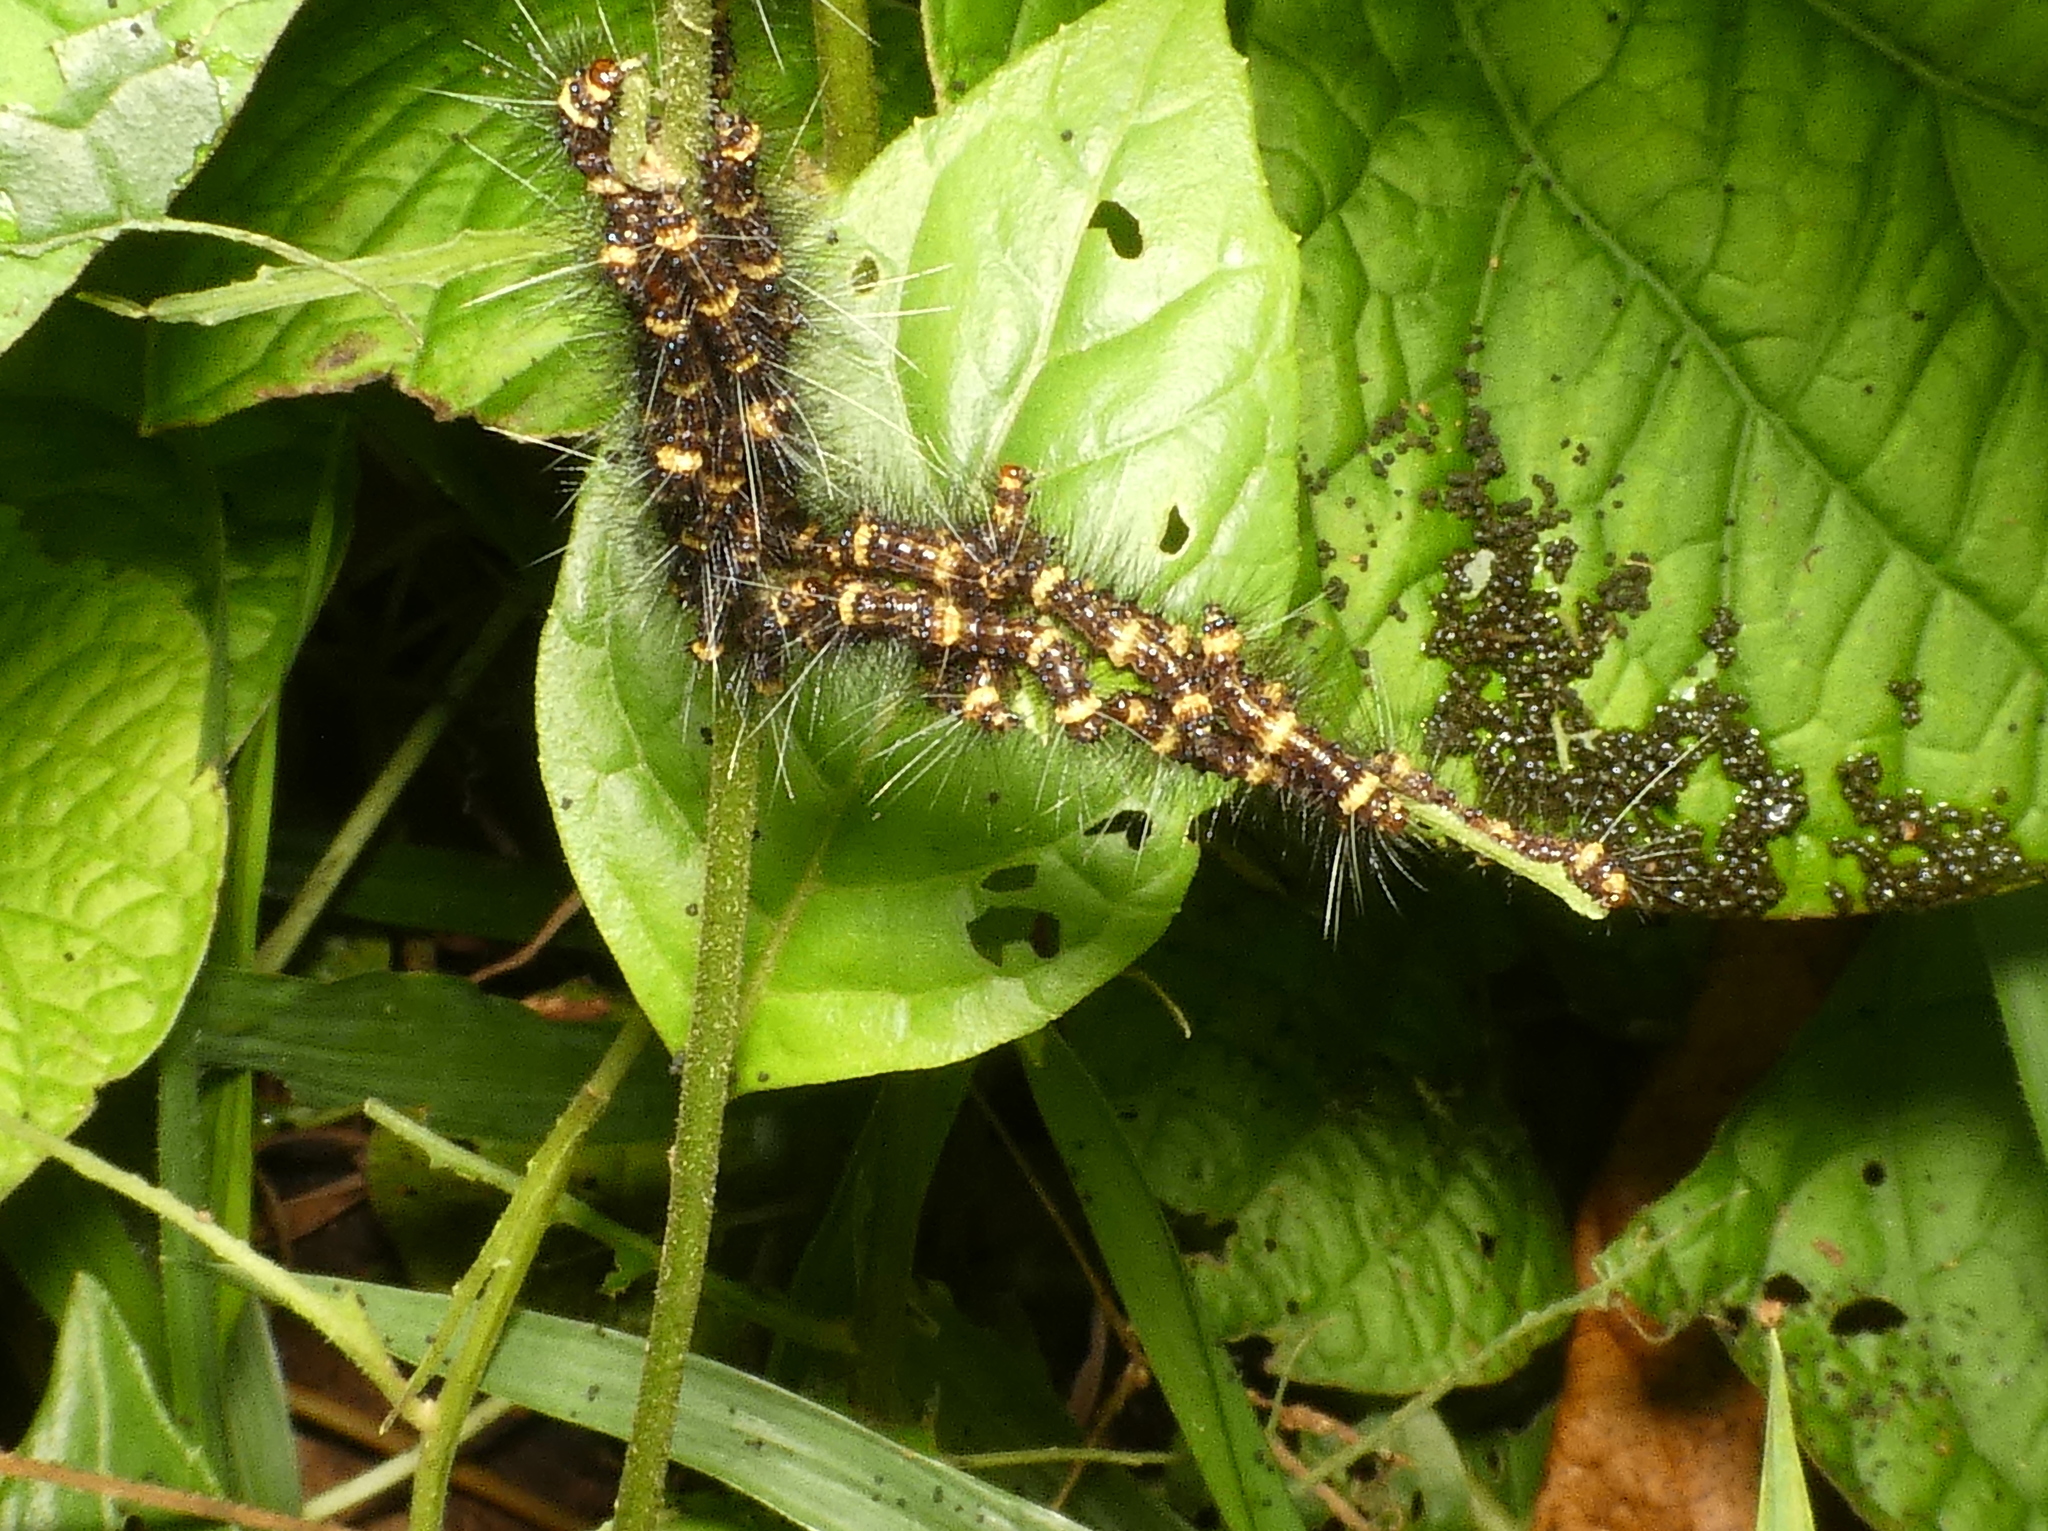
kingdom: Animalia
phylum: Arthropoda
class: Insecta
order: Lepidoptera
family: Erebidae
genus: Dysschema
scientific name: Dysschema tricolora
